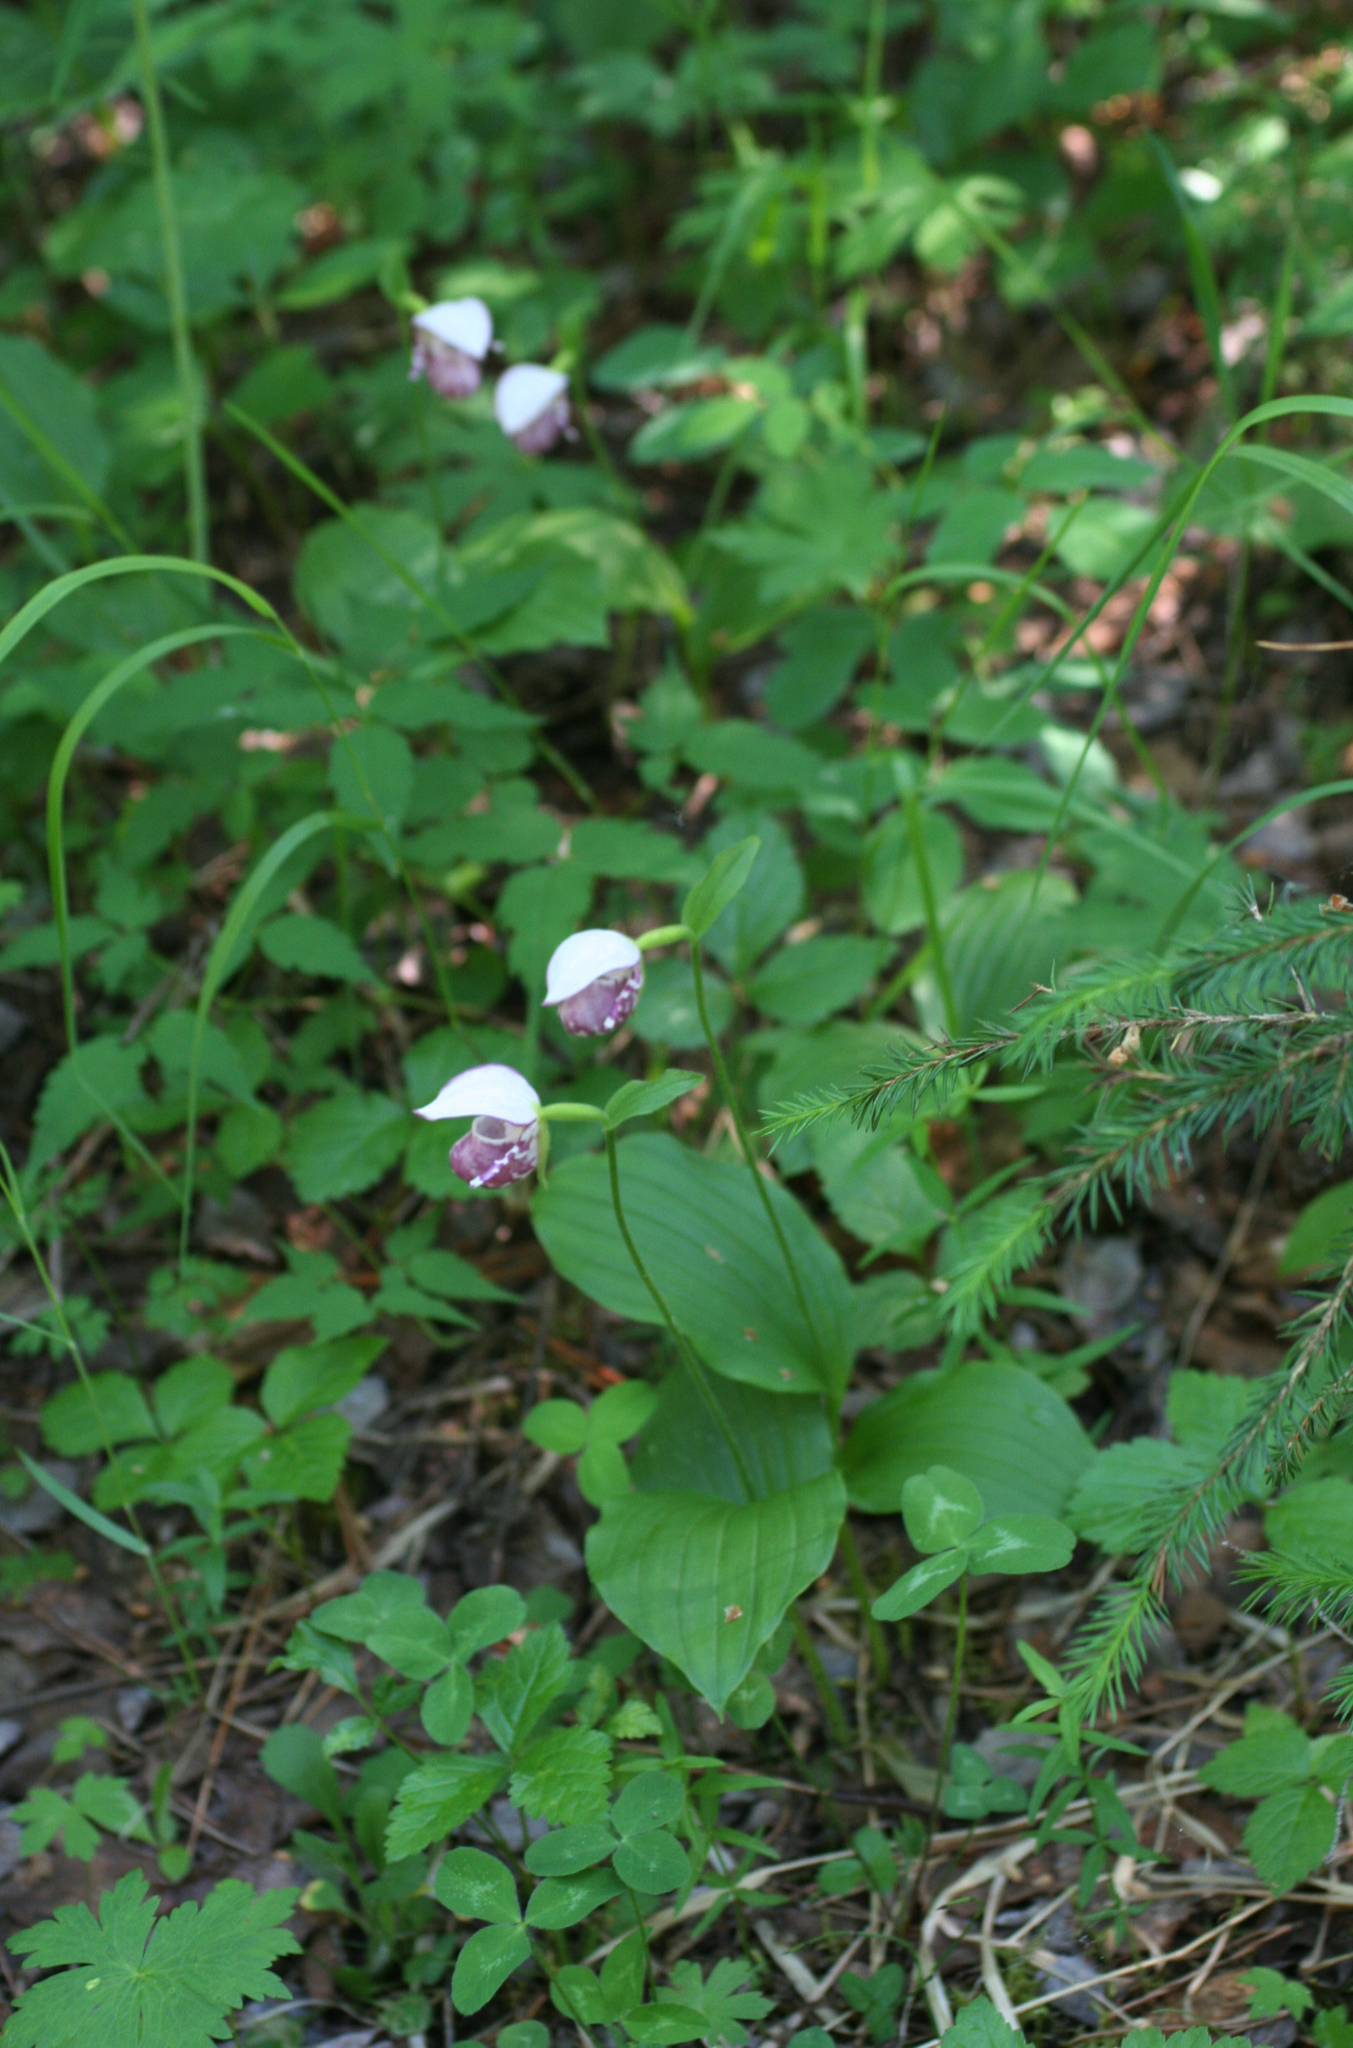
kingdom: Plantae
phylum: Tracheophyta
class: Liliopsida
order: Asparagales
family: Orchidaceae
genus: Cypripedium
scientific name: Cypripedium guttatum
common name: Pink lady slipper
